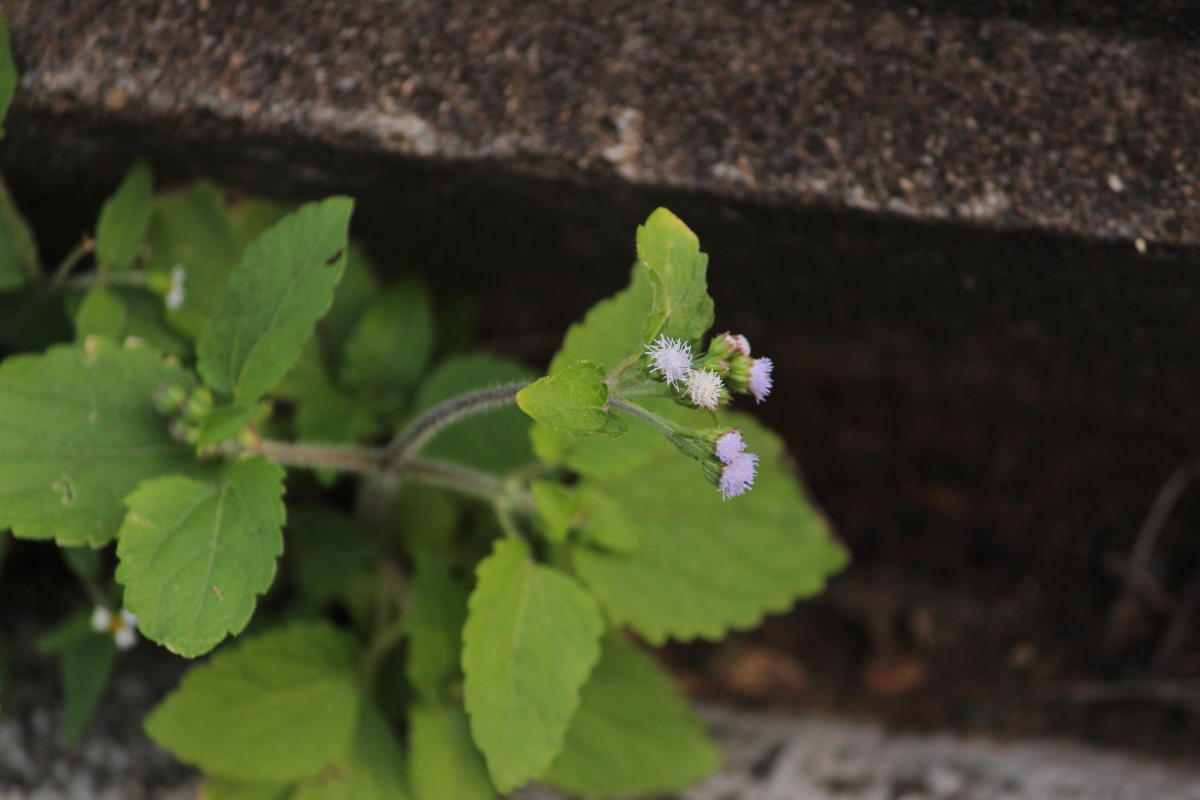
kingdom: Plantae
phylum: Tracheophyta
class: Magnoliopsida
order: Asterales
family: Asteraceae
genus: Ageratum
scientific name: Ageratum conyzoides
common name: Tropical whiteweed
